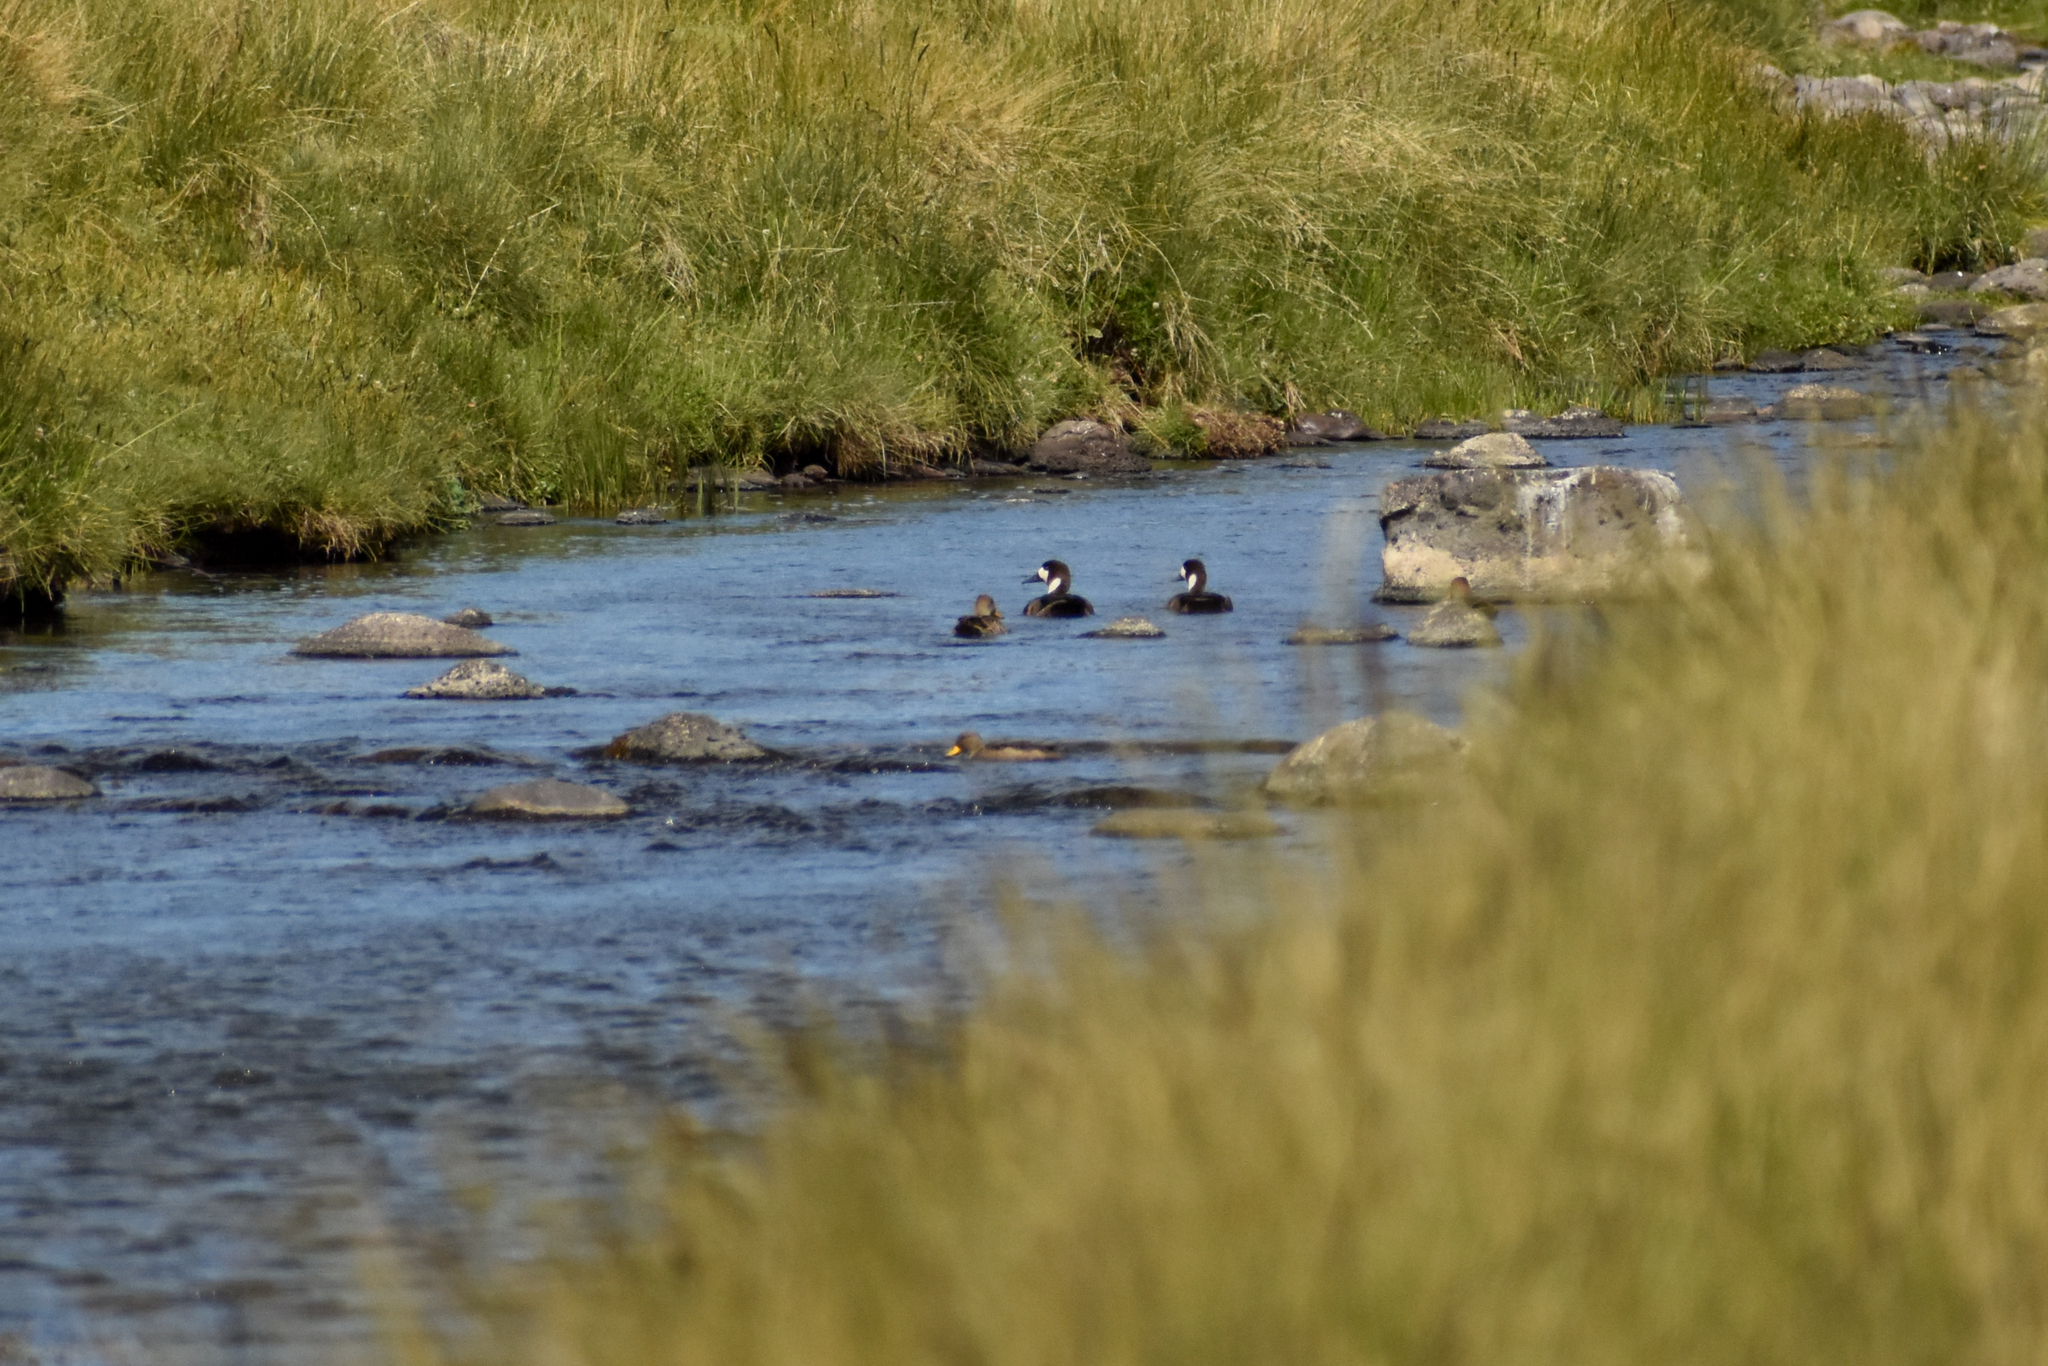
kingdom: Animalia
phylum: Chordata
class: Aves
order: Anseriformes
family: Anatidae
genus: Speculanas
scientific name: Speculanas specularis
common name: Bronze-winged duck
